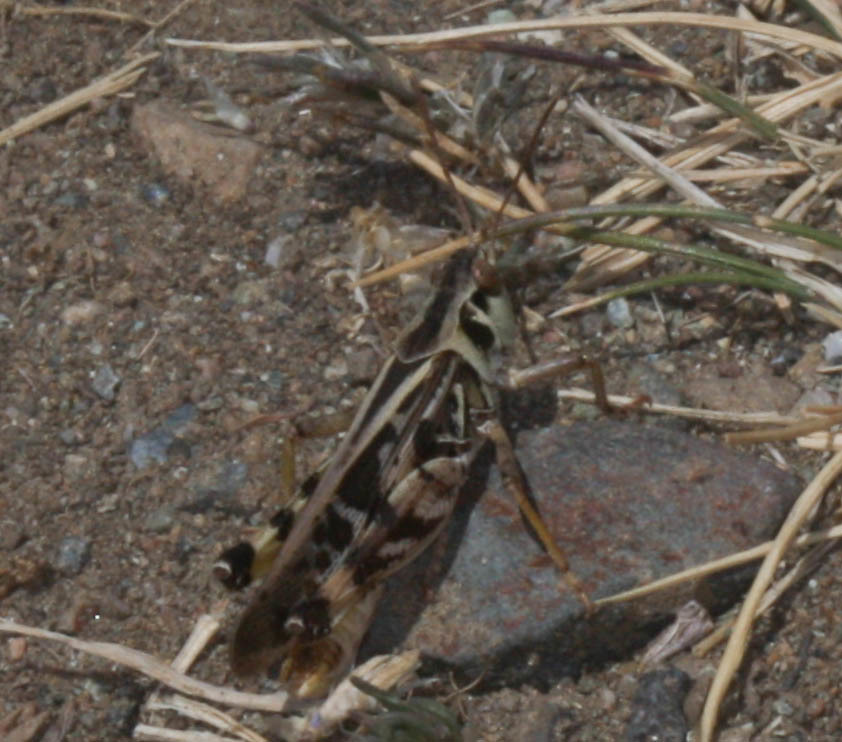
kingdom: Animalia
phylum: Arthropoda
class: Insecta
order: Orthoptera
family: Acrididae
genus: Camnula
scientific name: Camnula pellucida
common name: Clear-winged grasshopper
